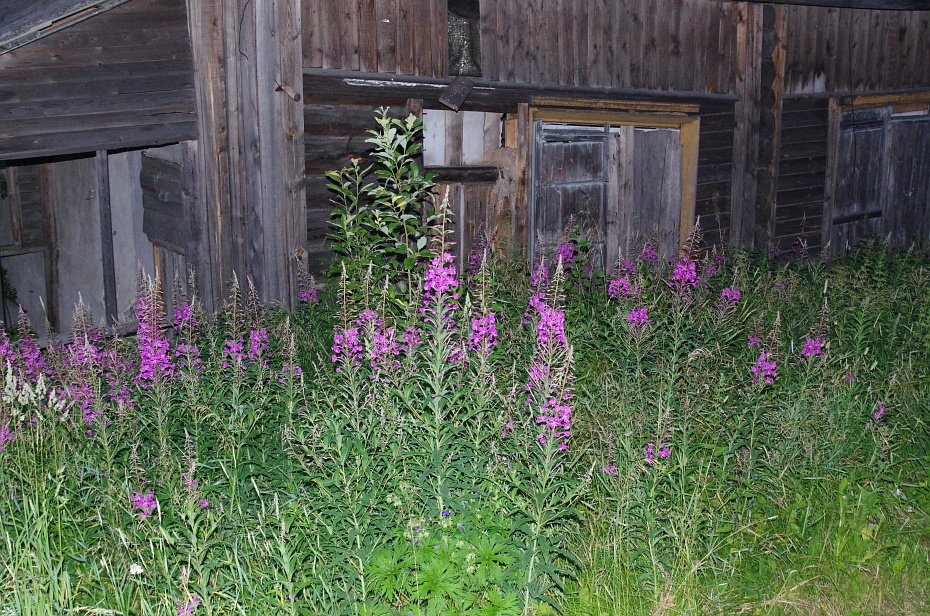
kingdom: Plantae
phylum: Tracheophyta
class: Magnoliopsida
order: Myrtales
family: Onagraceae
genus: Chamaenerion
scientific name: Chamaenerion angustifolium
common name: Fireweed
